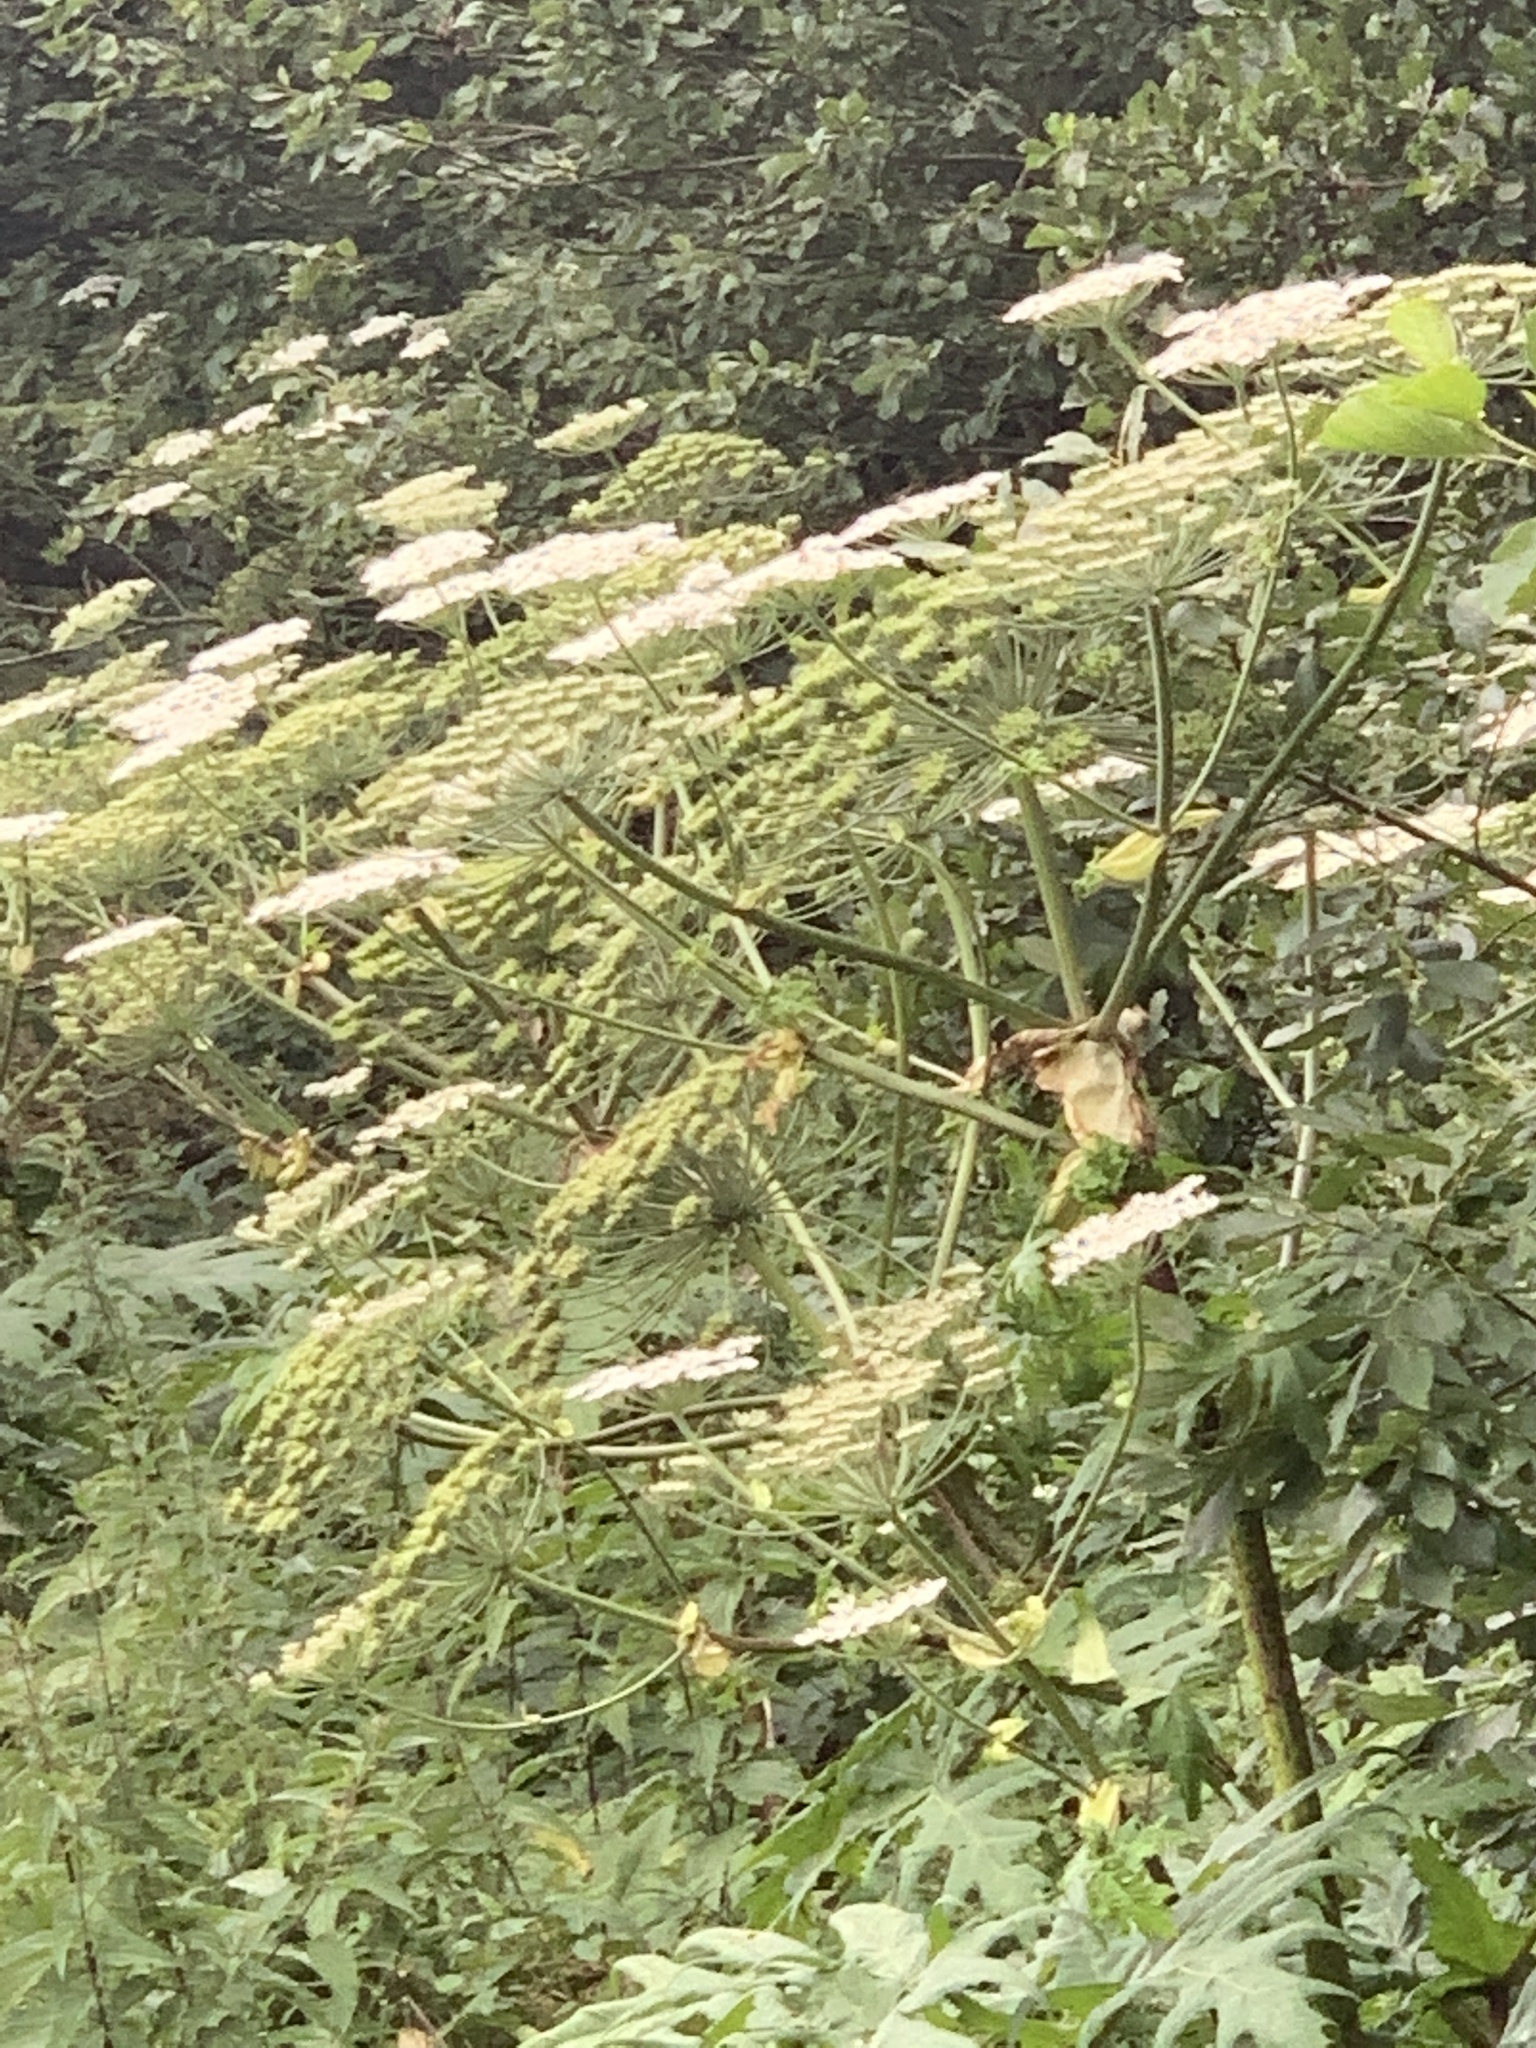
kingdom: Plantae
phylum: Tracheophyta
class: Magnoliopsida
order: Apiales
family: Apiaceae
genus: Heracleum
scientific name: Heracleum mantegazzianum
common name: Giant hogweed
